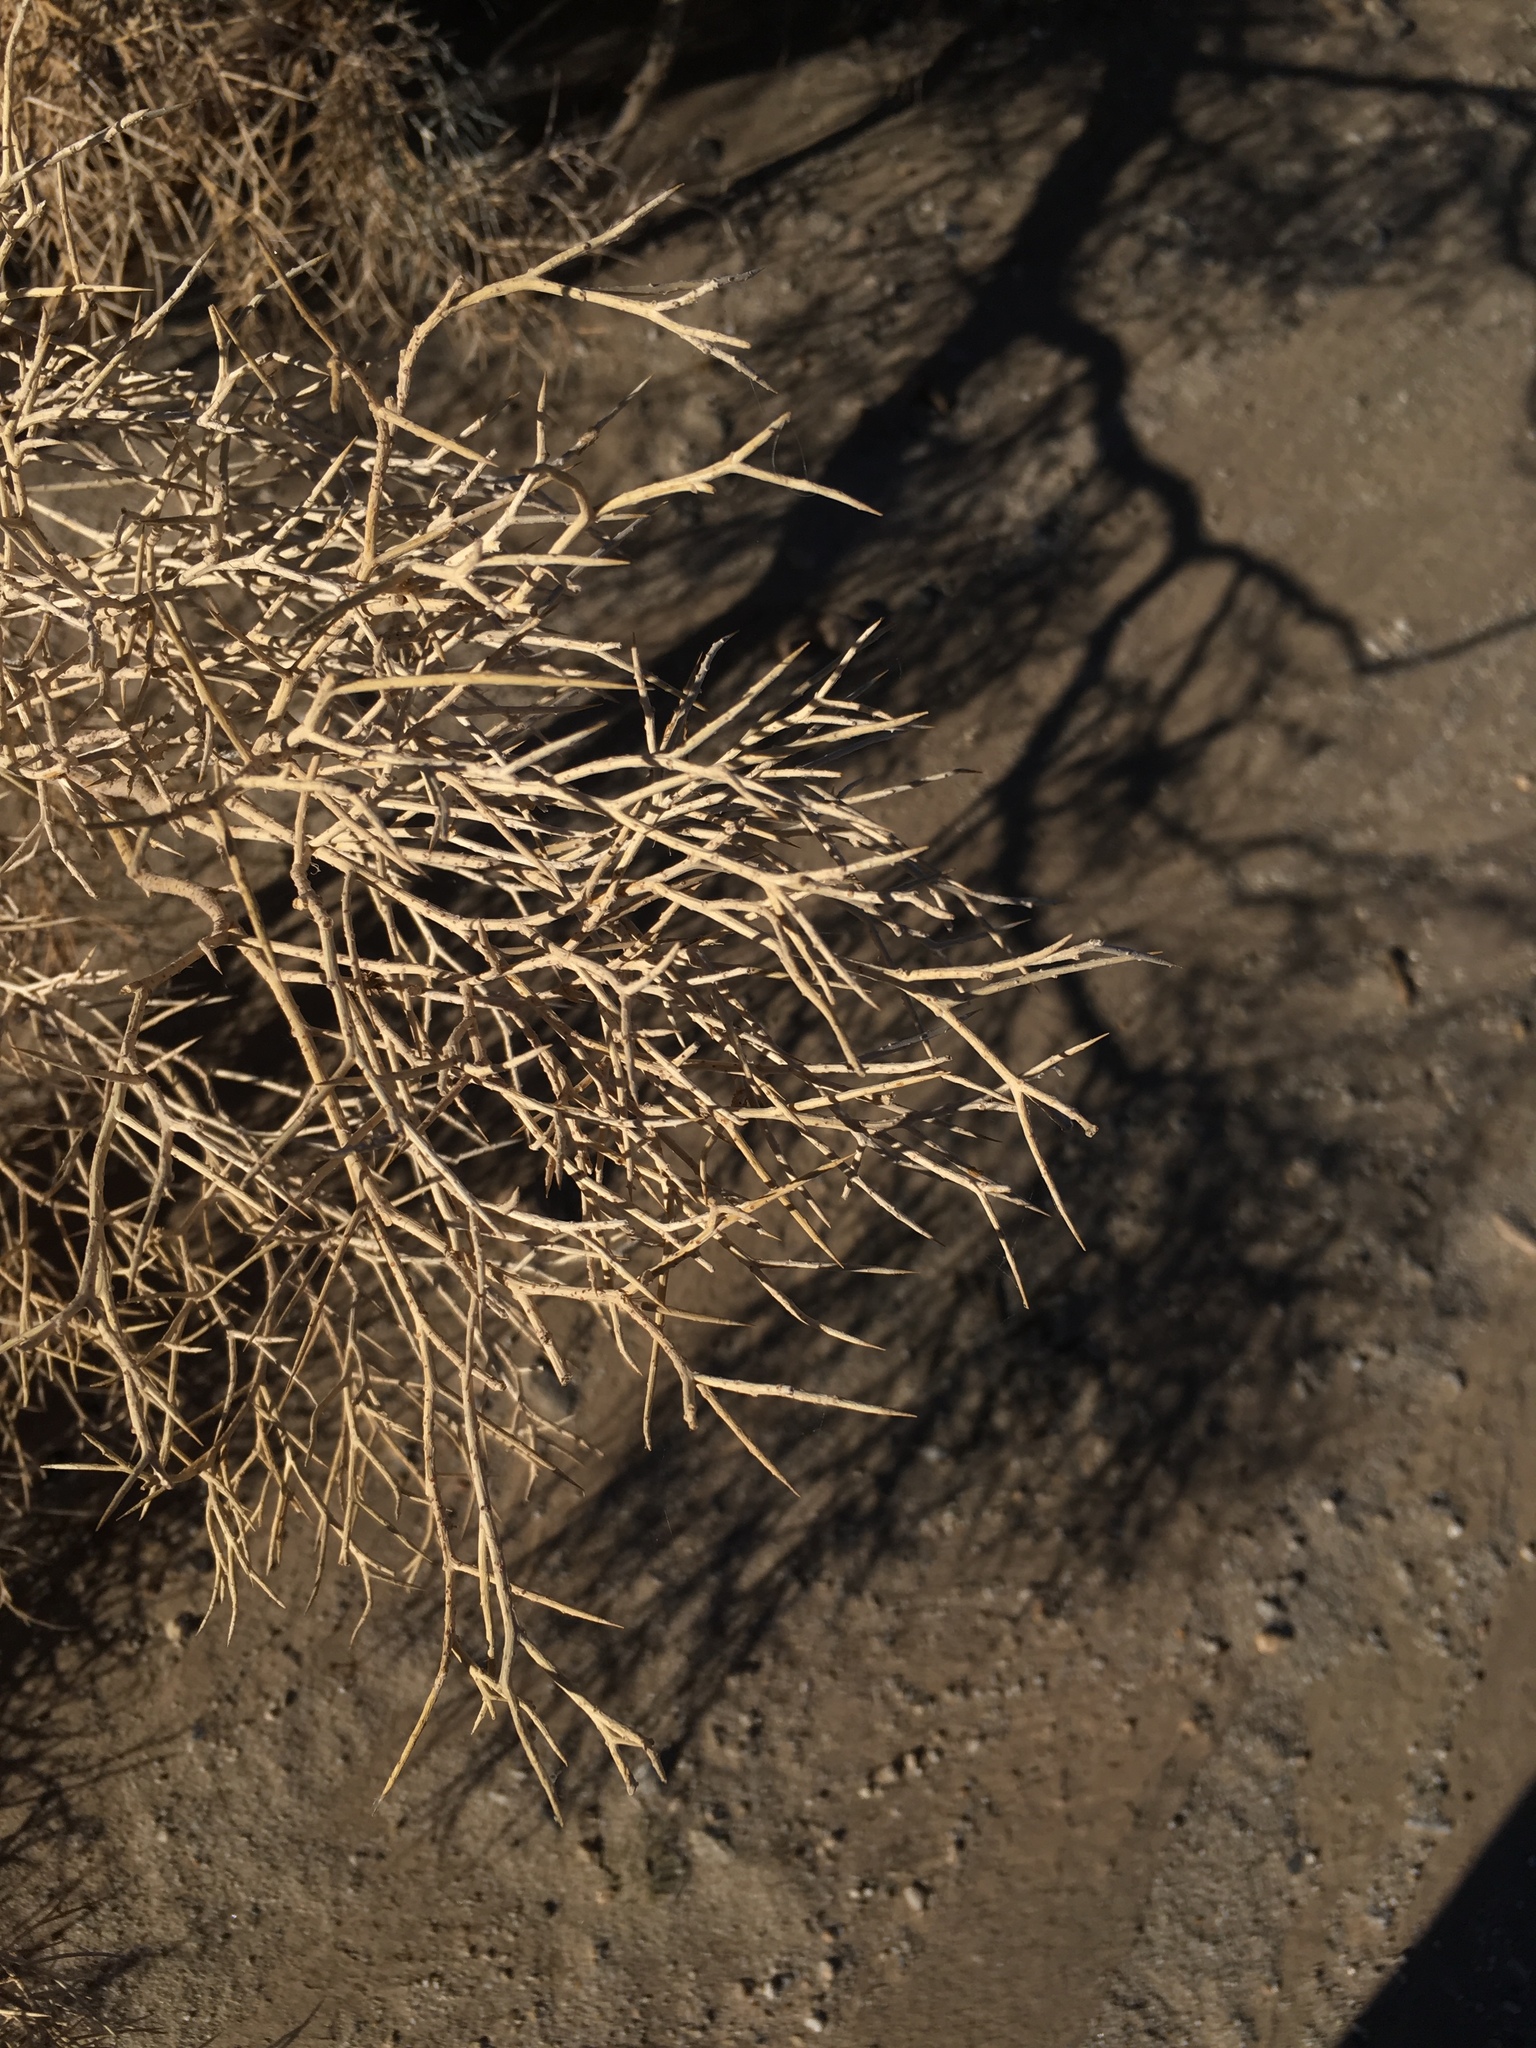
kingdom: Plantae
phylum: Tracheophyta
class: Magnoliopsida
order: Fabales
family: Fabaceae
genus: Psorothamnus
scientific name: Psorothamnus spinosus
